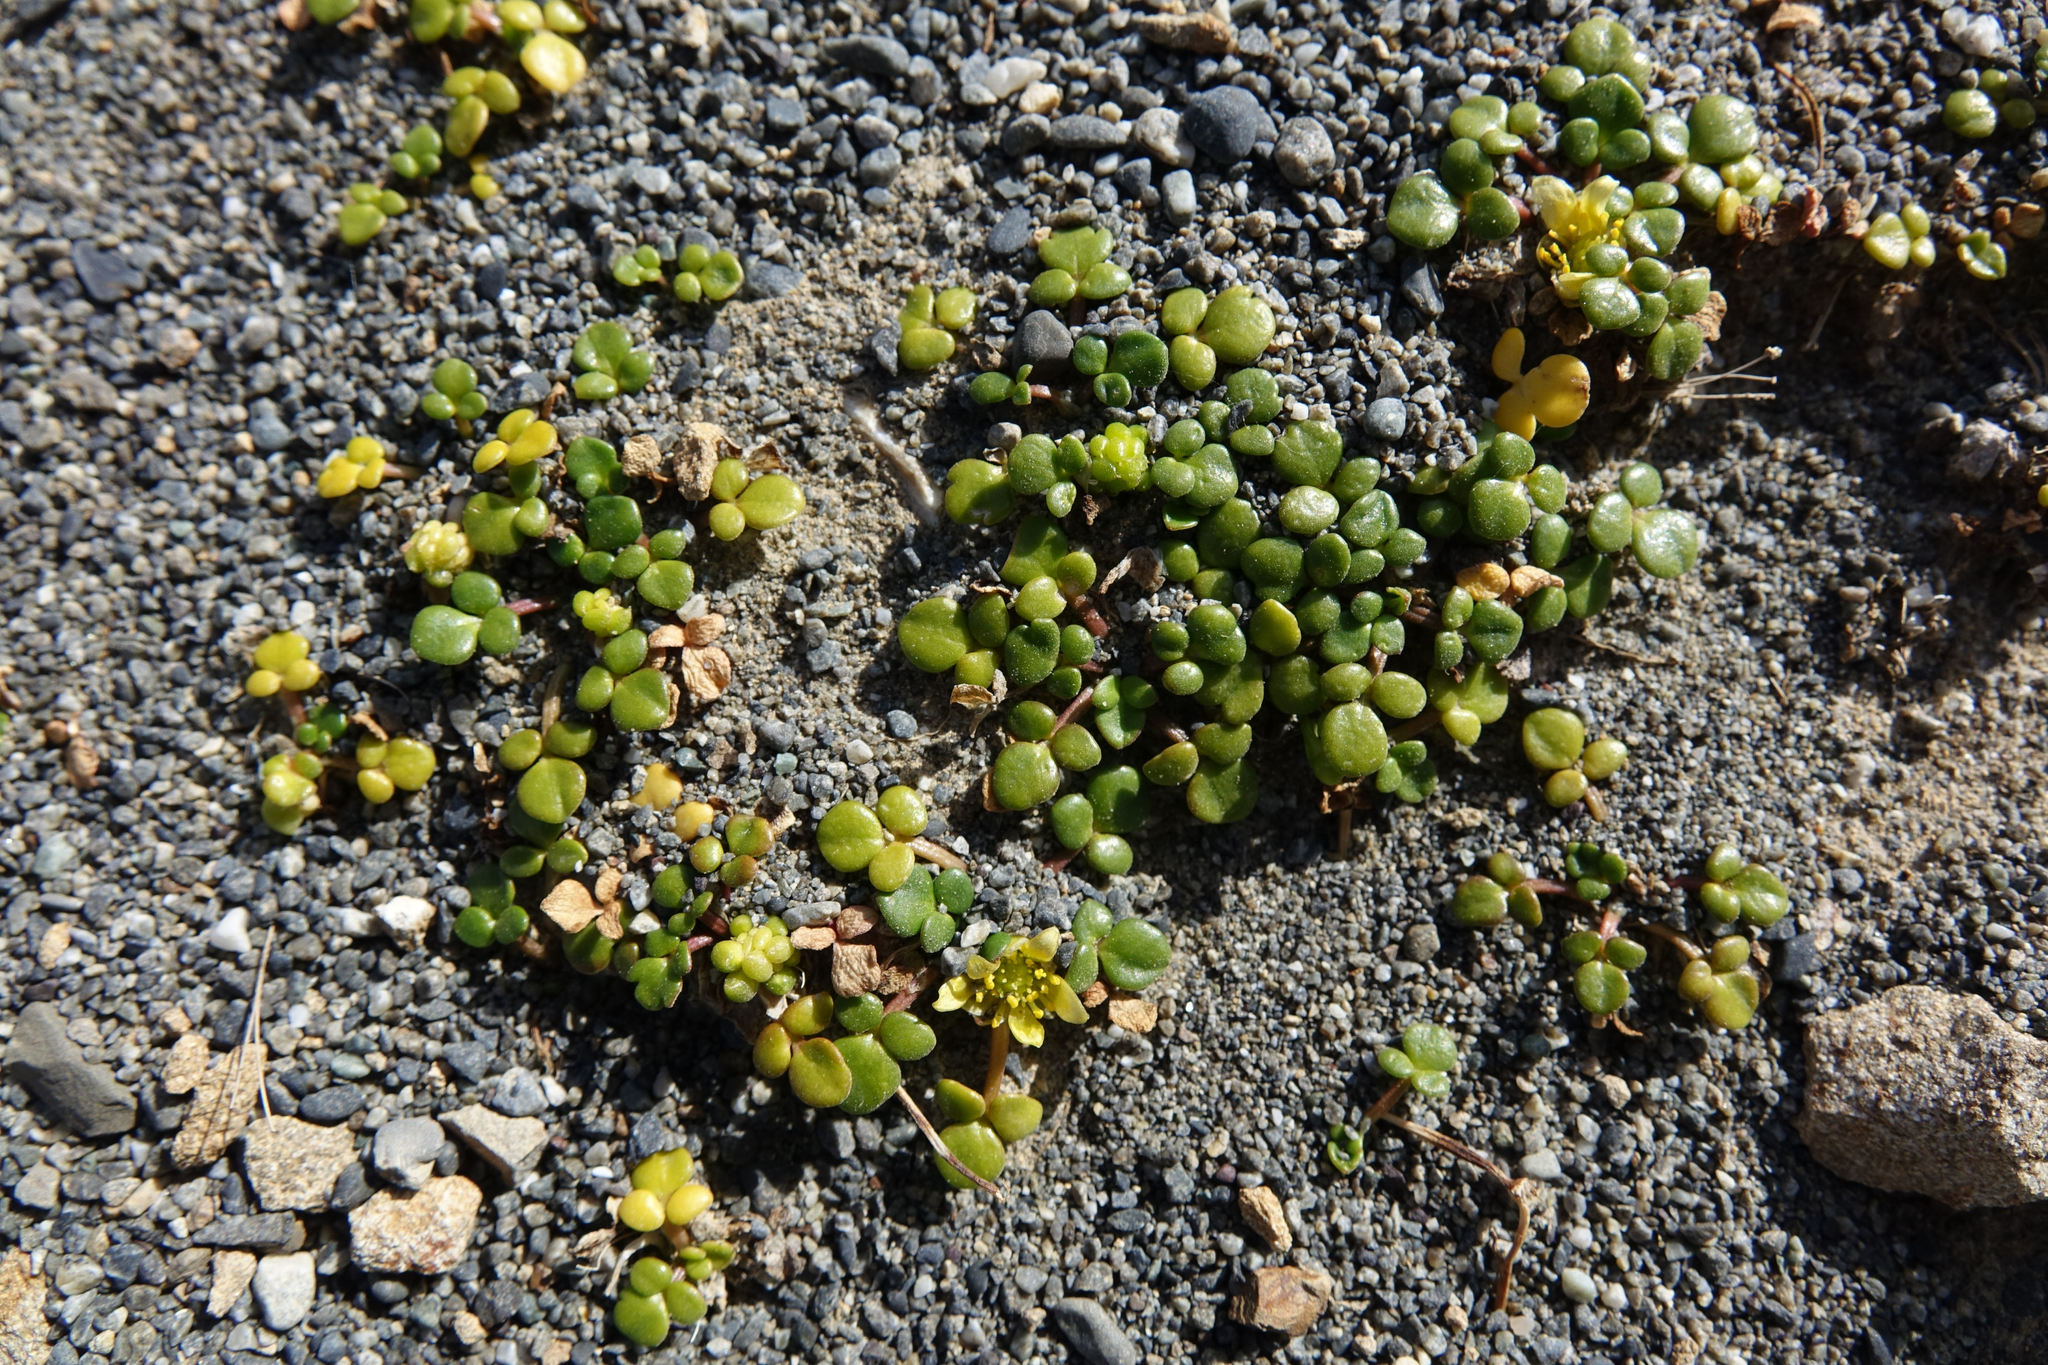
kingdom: Plantae
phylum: Tracheophyta
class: Magnoliopsida
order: Ranunculales
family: Ranunculaceae
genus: Ranunculus
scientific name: Ranunculus acaulis
